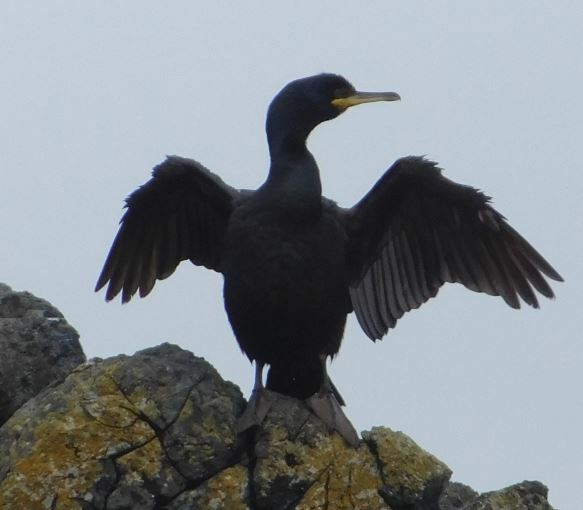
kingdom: Animalia
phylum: Chordata
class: Aves
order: Suliformes
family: Phalacrocoracidae
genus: Phalacrocorax
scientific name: Phalacrocorax aristotelis
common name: European shag
